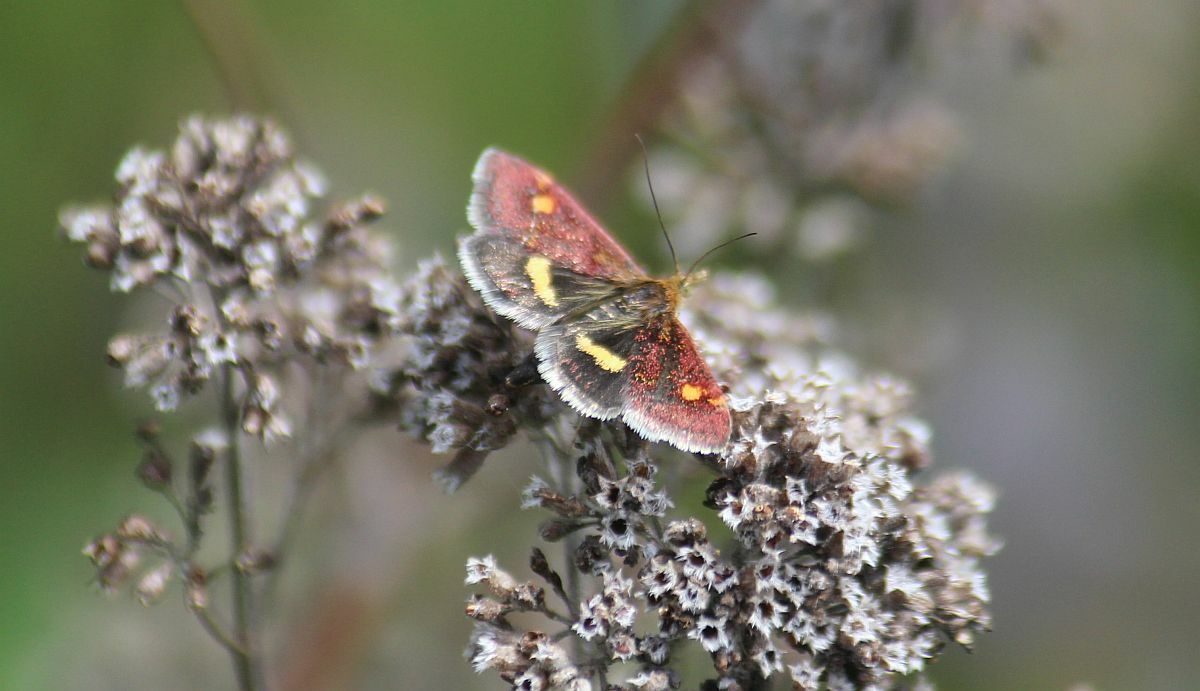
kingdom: Animalia
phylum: Arthropoda
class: Insecta
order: Lepidoptera
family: Crambidae
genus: Pyrausta
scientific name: Pyrausta aurata
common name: Small purple & gold
